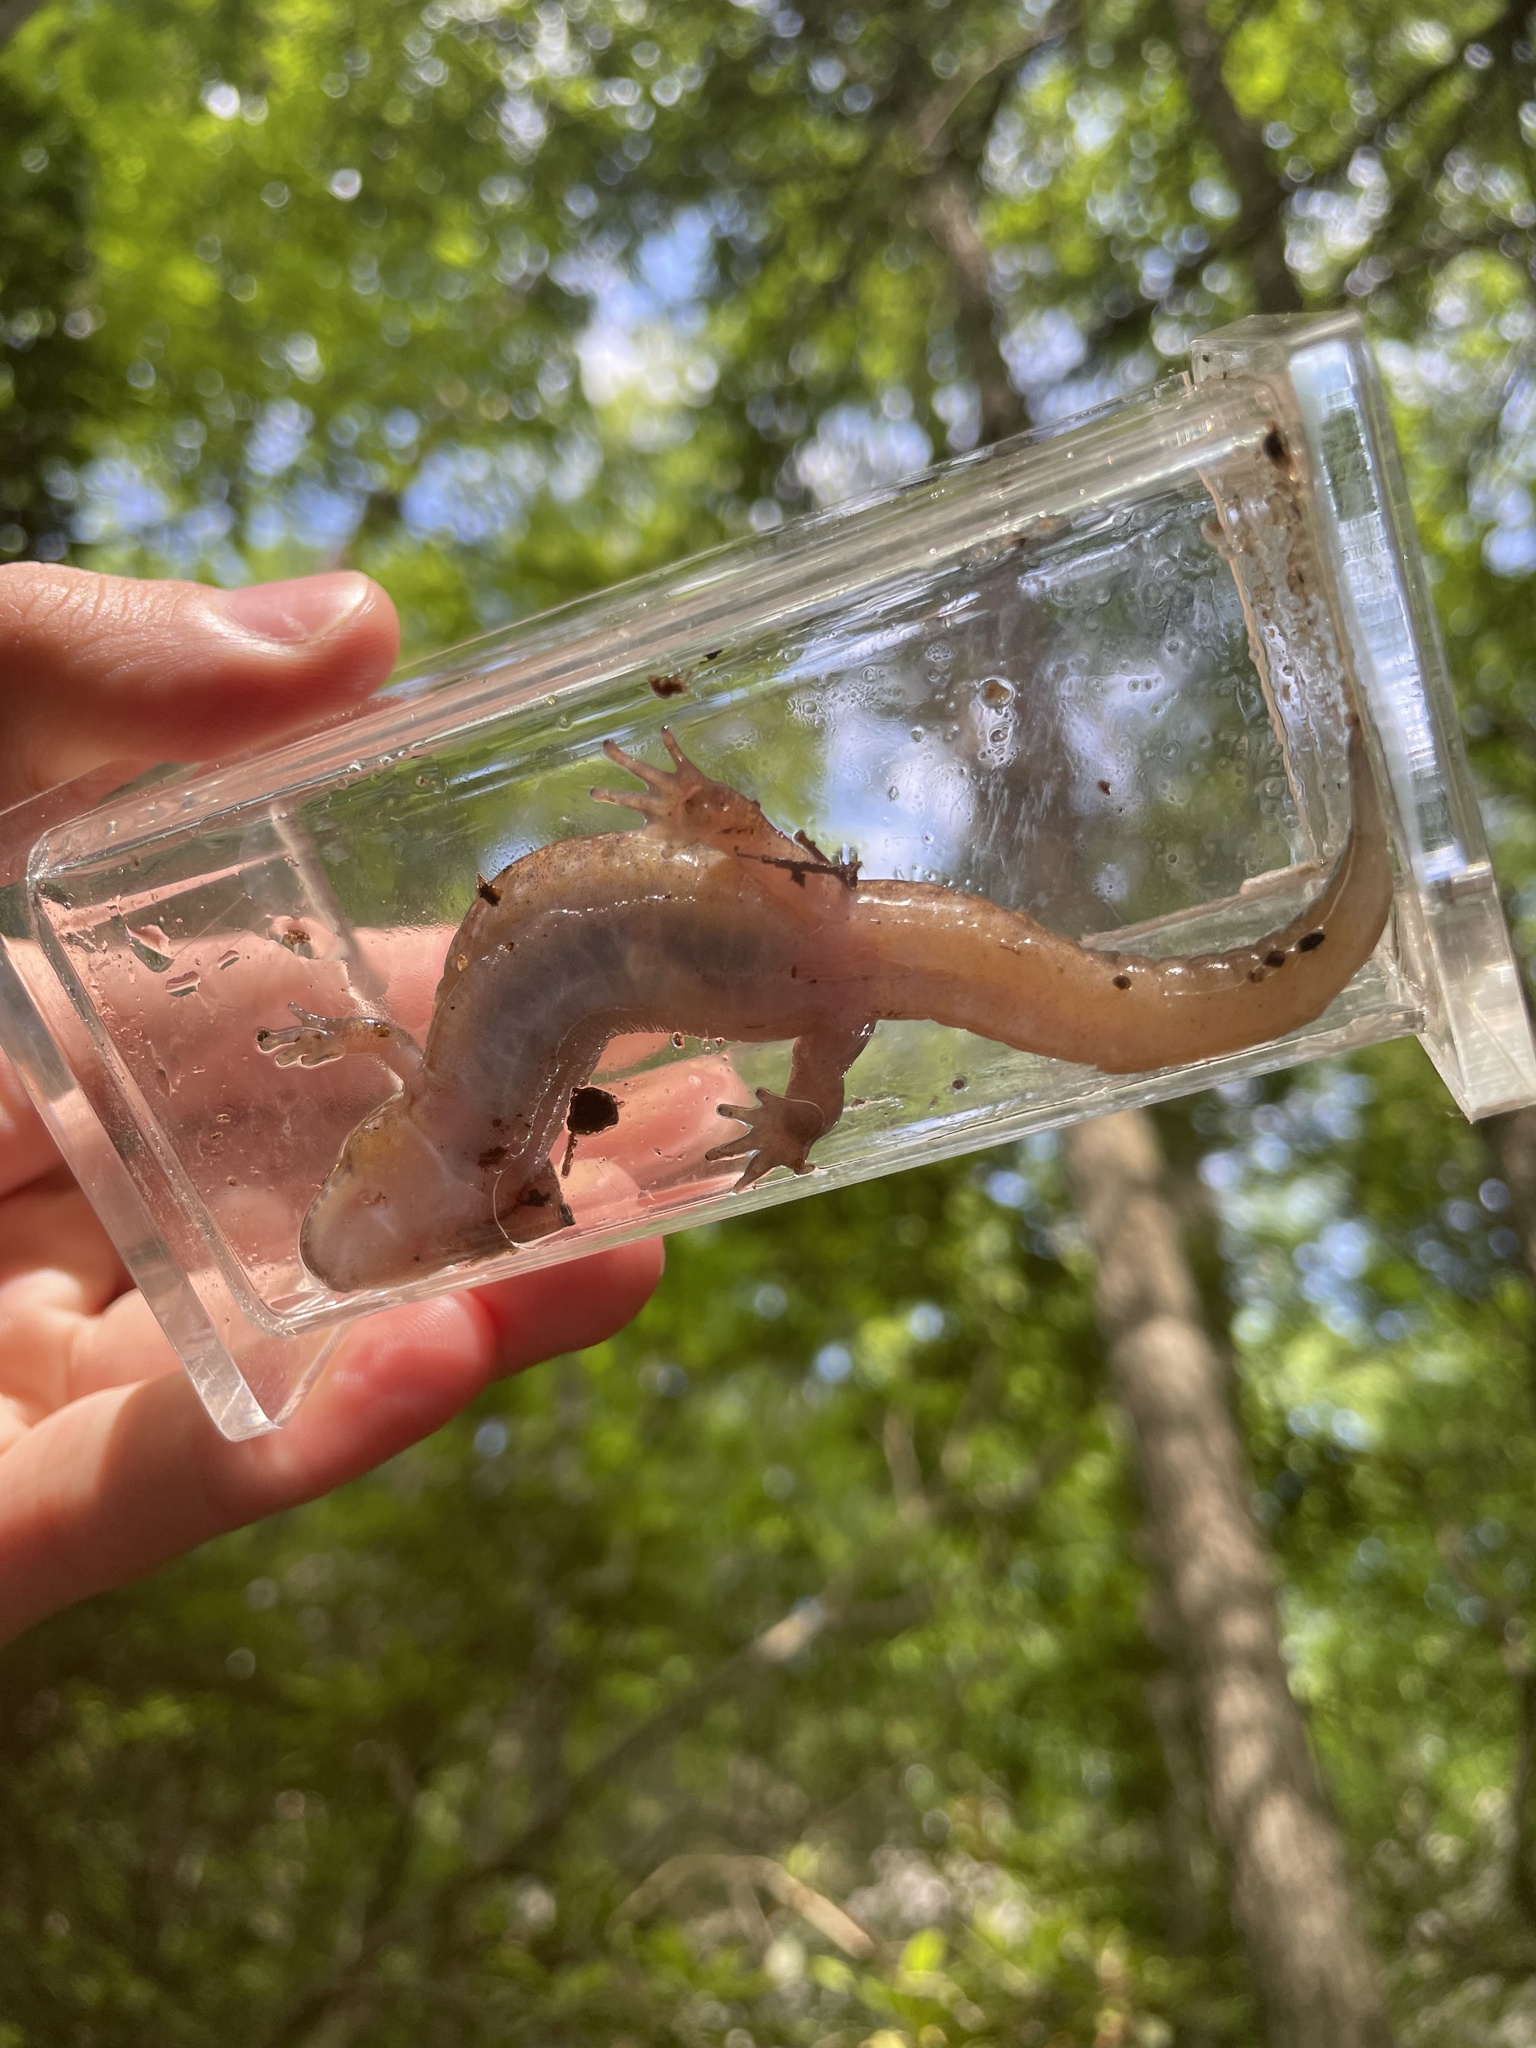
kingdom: Animalia
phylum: Chordata
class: Amphibia
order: Caudata
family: Plethodontidae
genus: Desmognathus
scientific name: Desmognathus monticola
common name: Seal salamander
